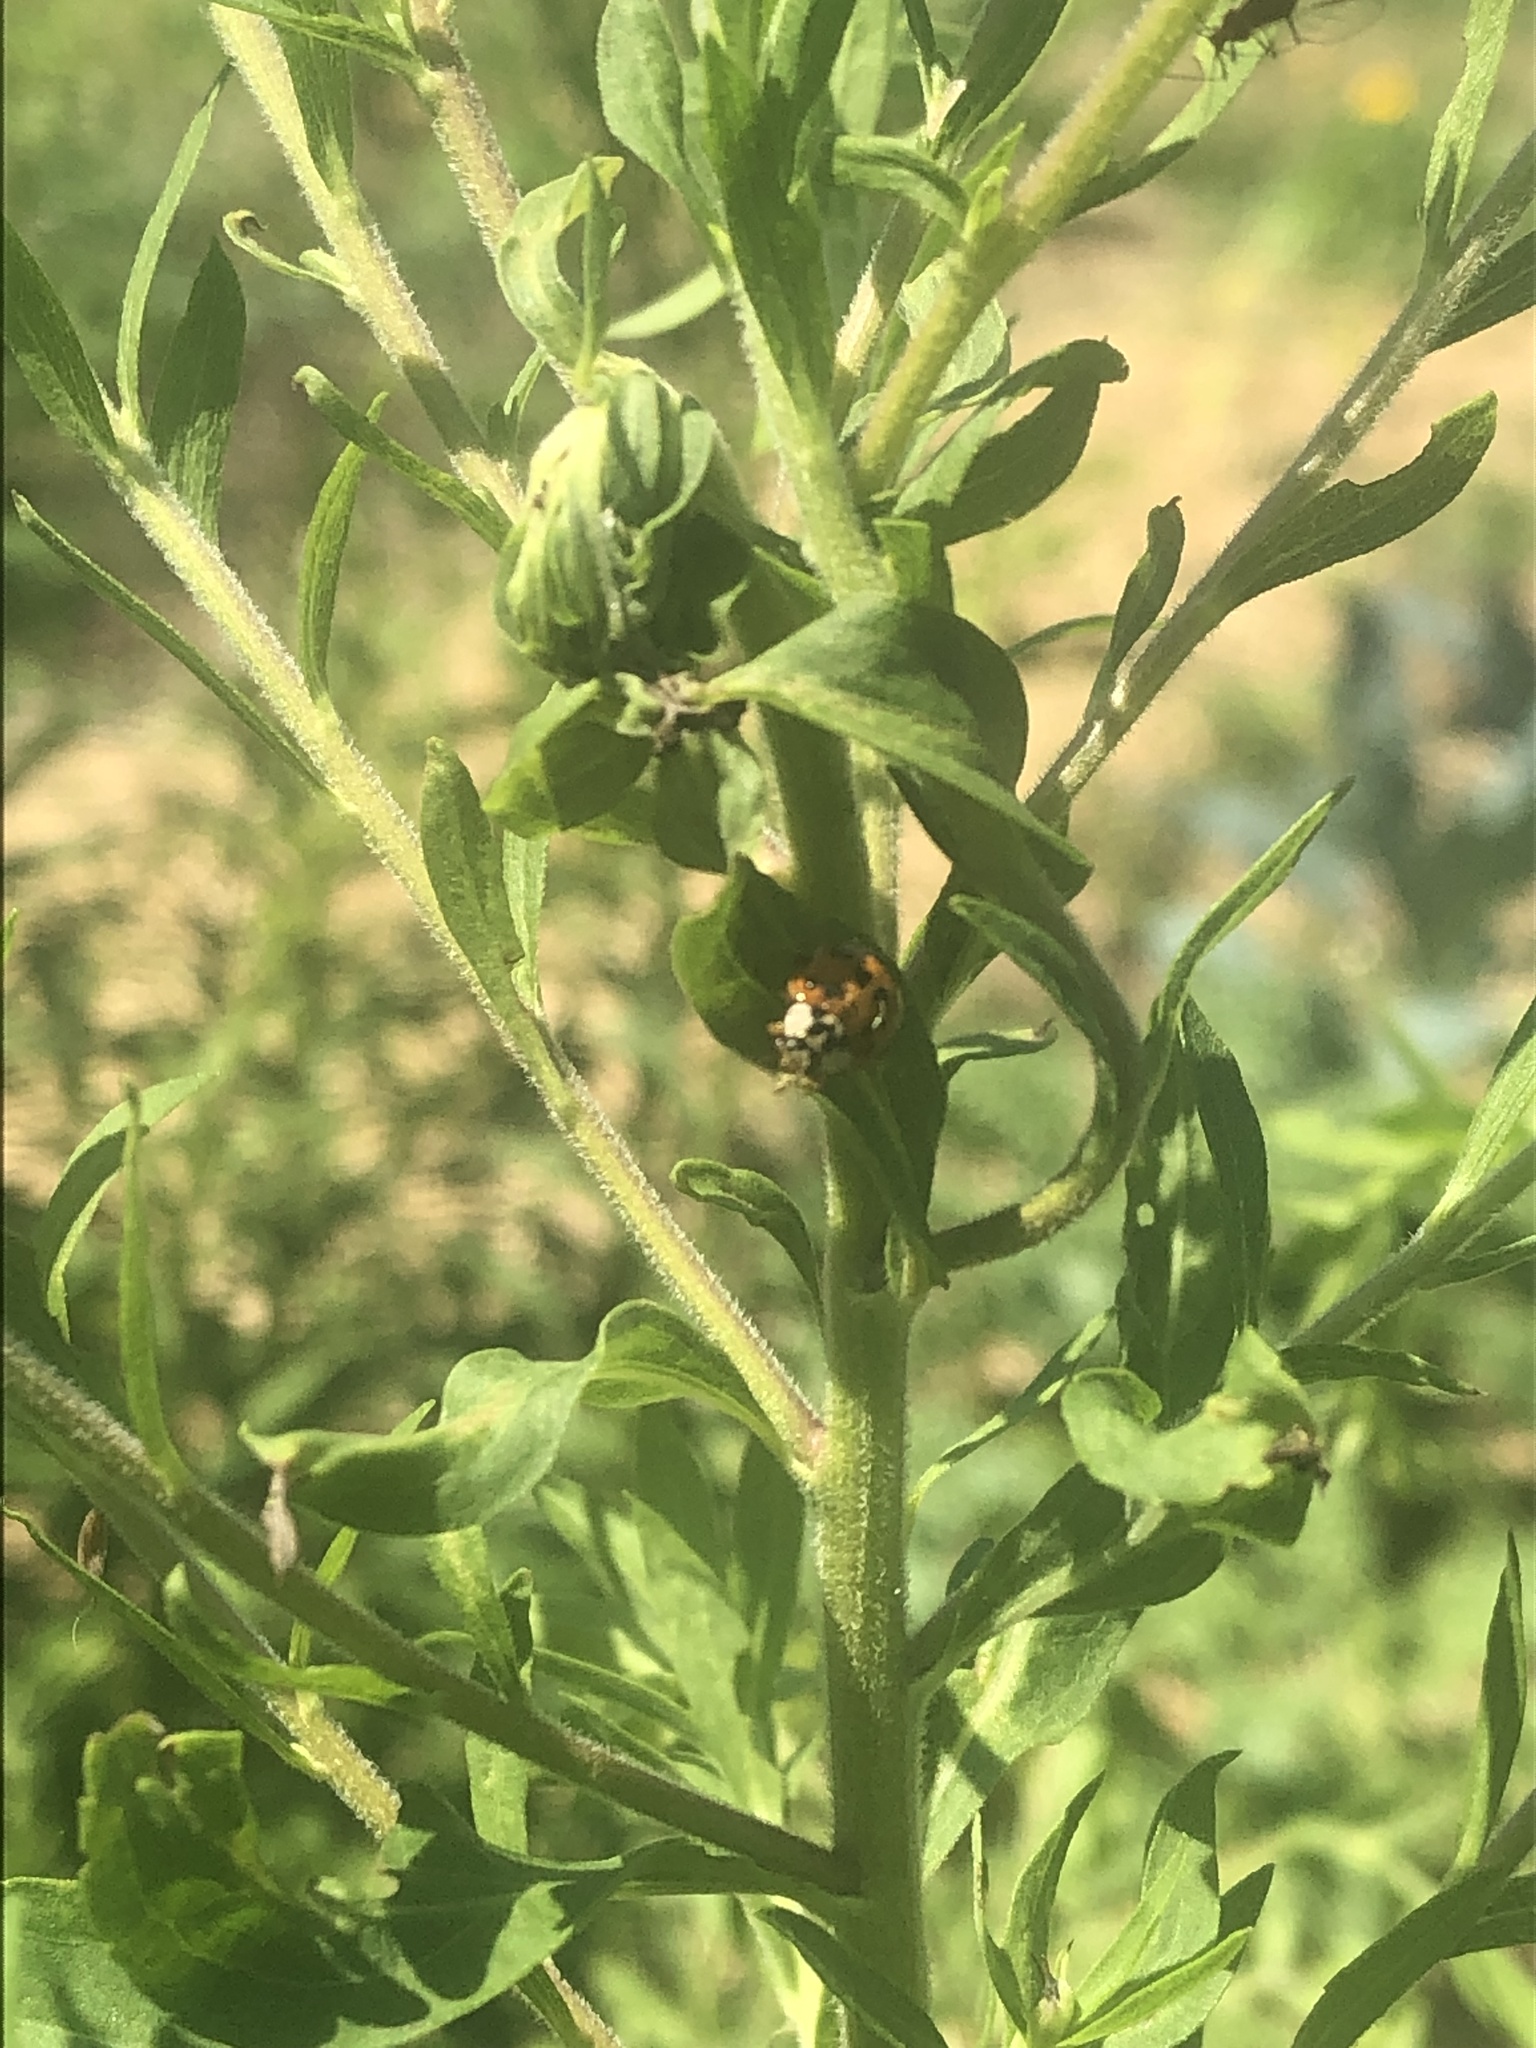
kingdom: Animalia
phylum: Arthropoda
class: Insecta
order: Coleoptera
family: Coccinellidae
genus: Harmonia
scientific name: Harmonia axyridis
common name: Harlequin ladybird
